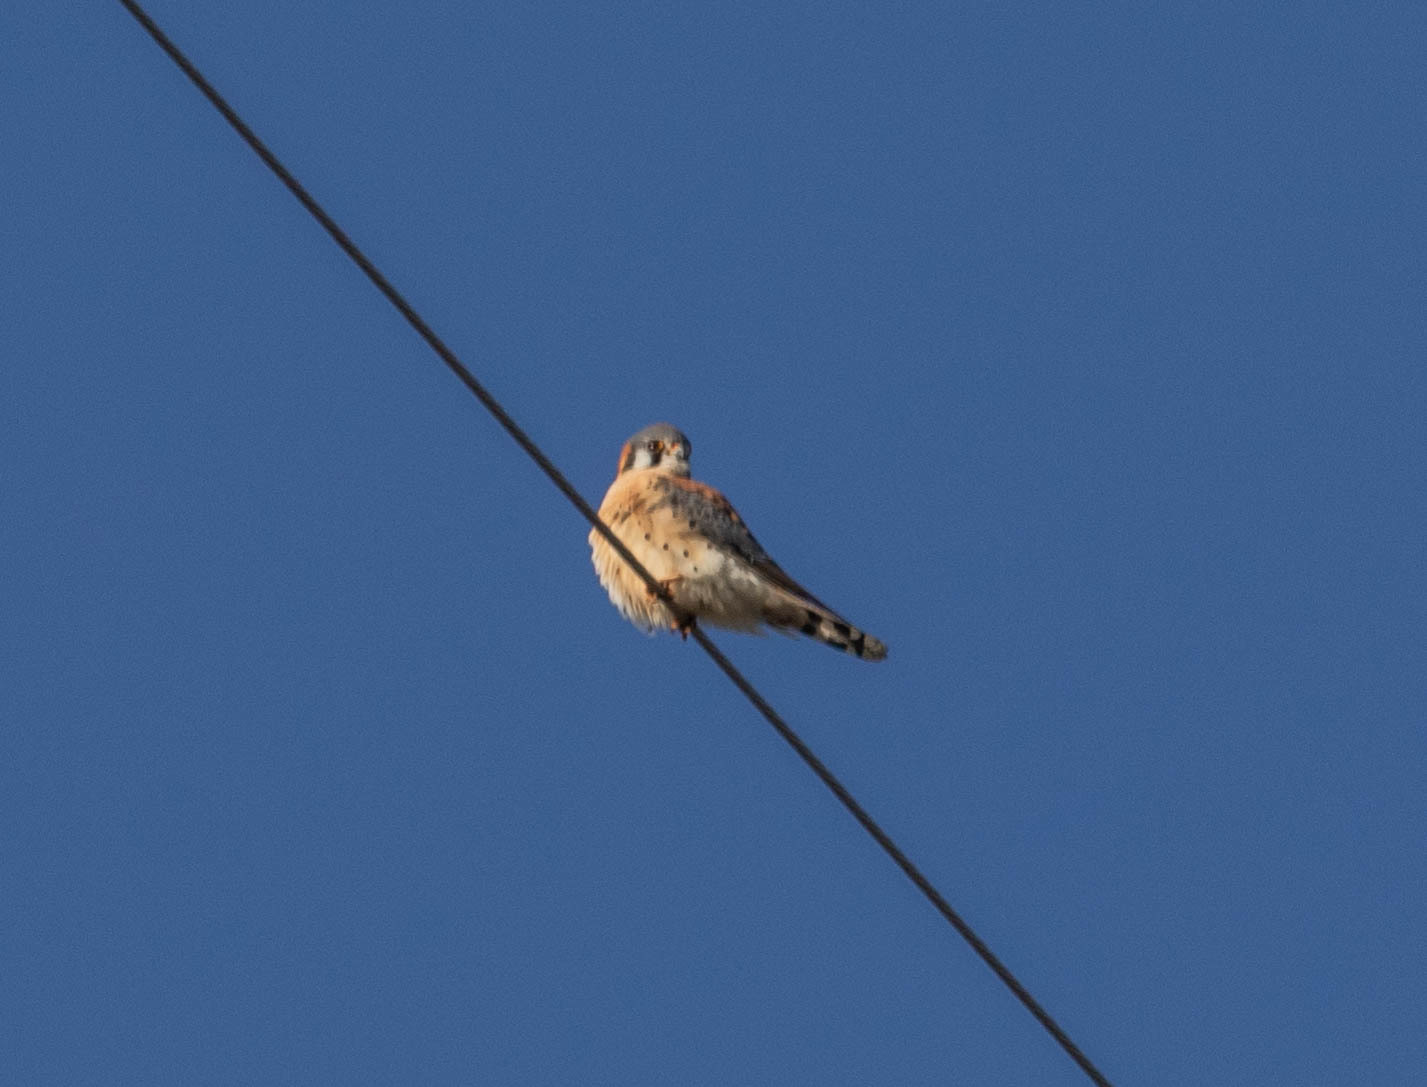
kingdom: Animalia
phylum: Chordata
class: Aves
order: Falconiformes
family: Falconidae
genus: Falco
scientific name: Falco sparverius
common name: American kestrel
